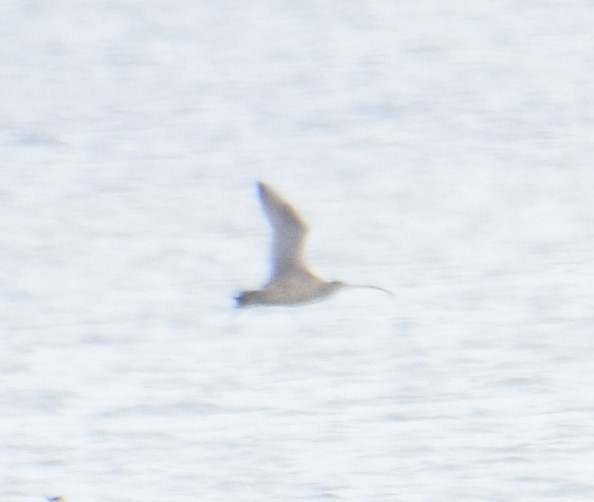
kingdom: Animalia
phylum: Chordata
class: Aves
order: Charadriiformes
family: Scolopacidae
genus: Numenius
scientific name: Numenius madagascariensis
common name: Far eastern curlew
